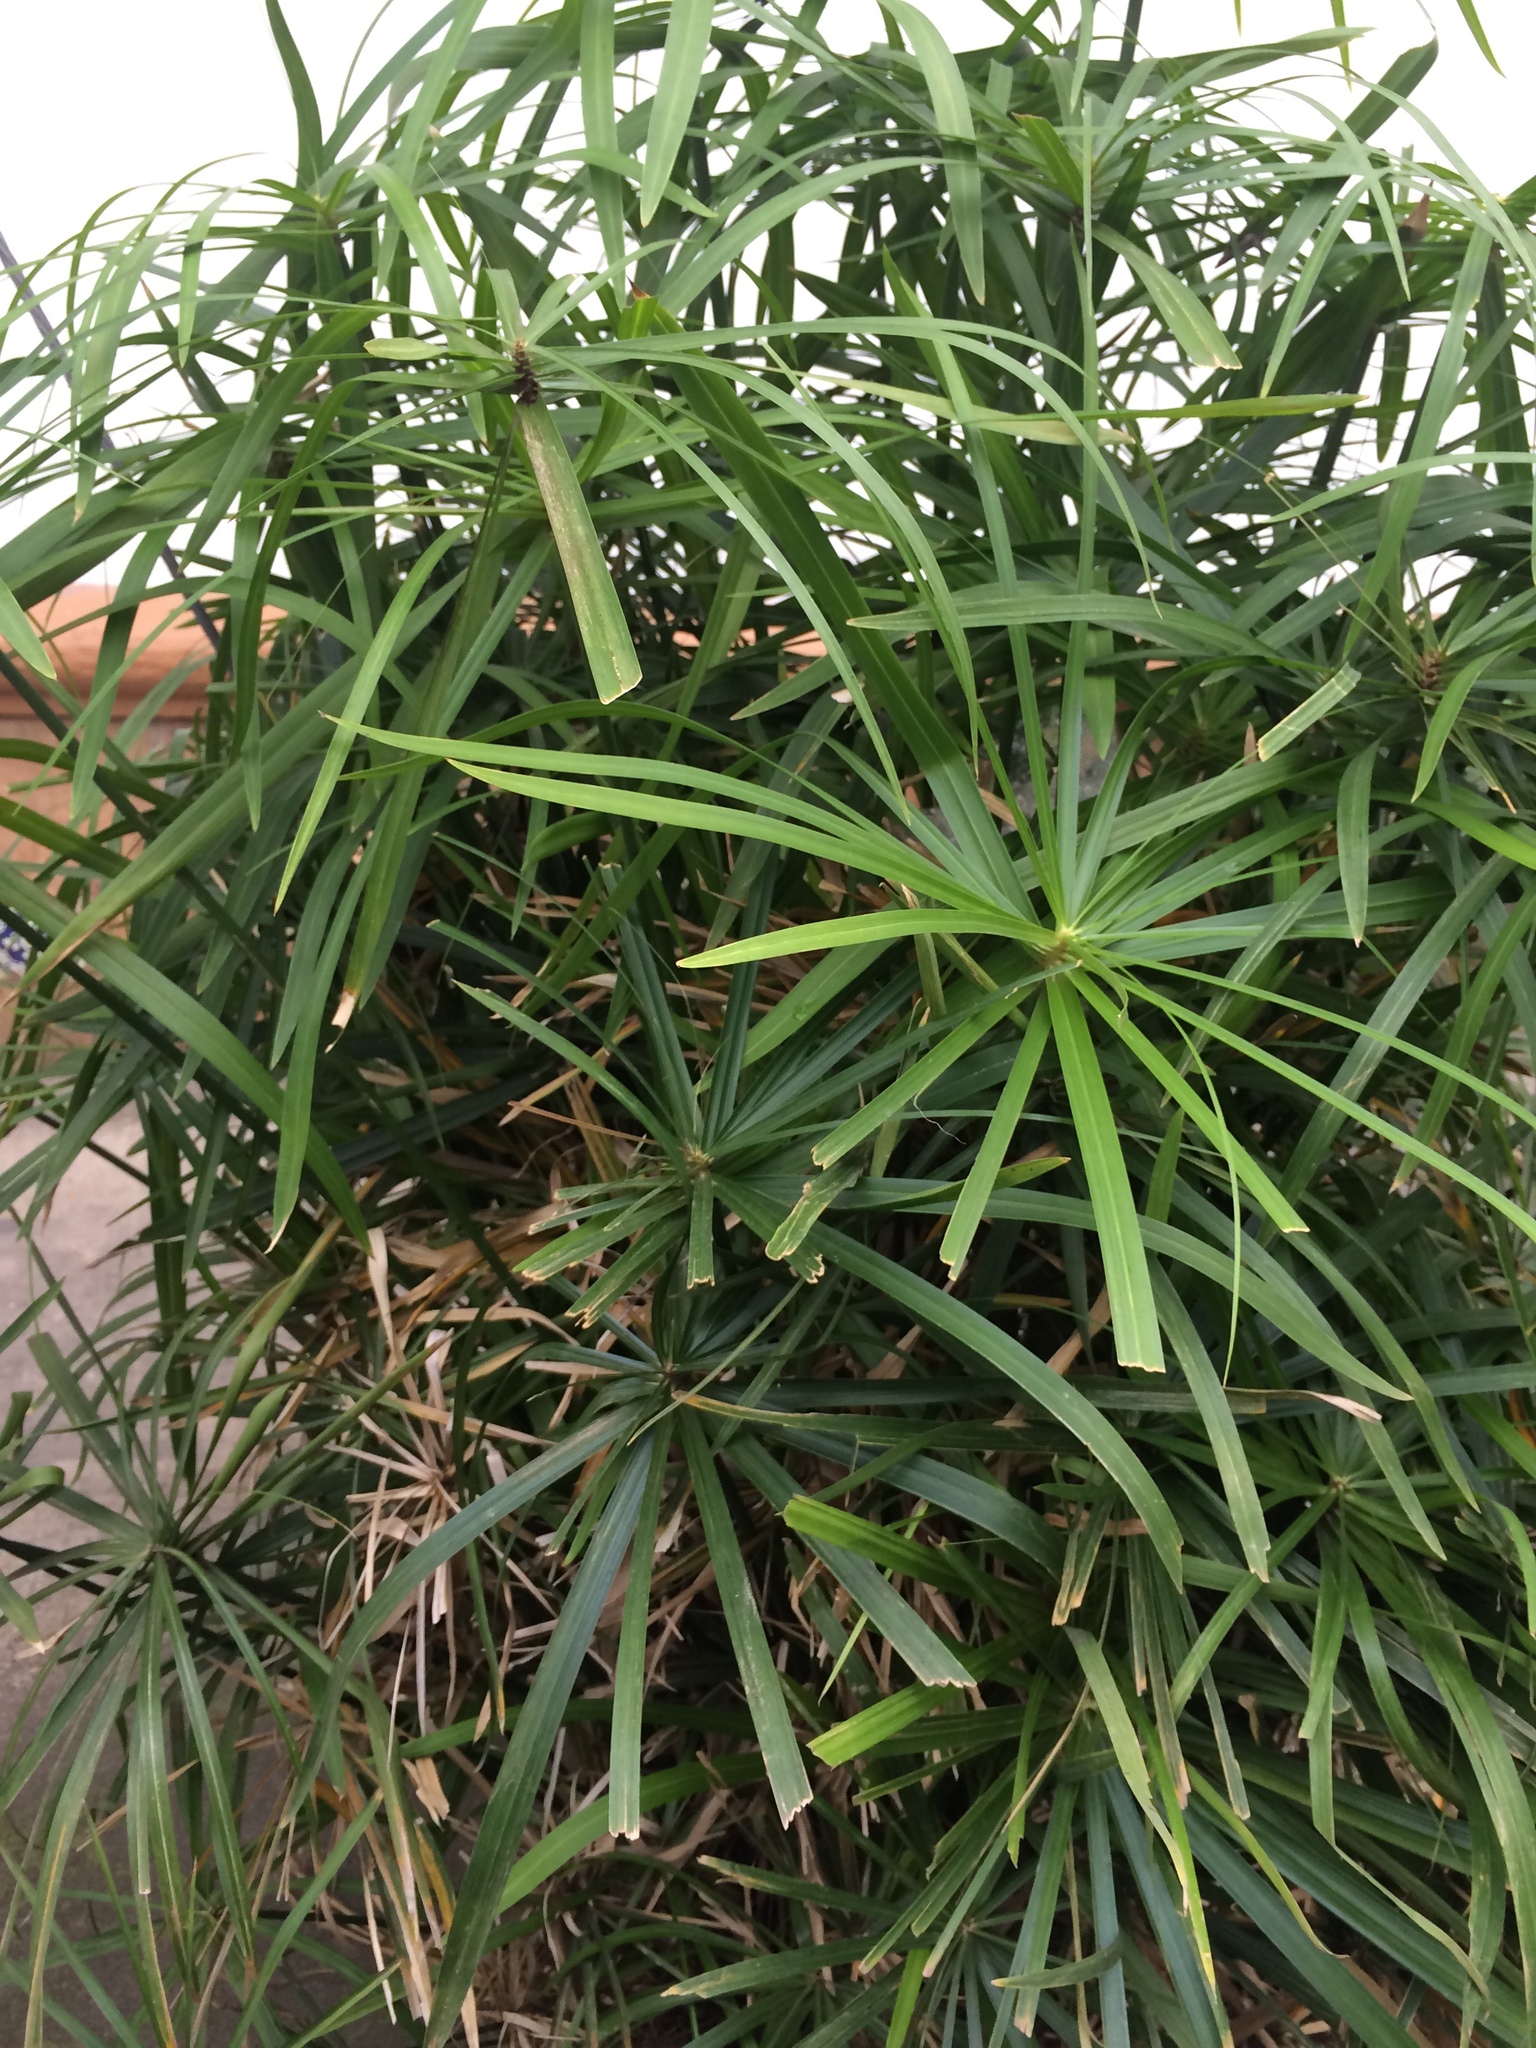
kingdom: Plantae
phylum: Tracheophyta
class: Liliopsida
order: Poales
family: Cyperaceae
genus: Cyperus
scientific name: Cyperus alternifolius
